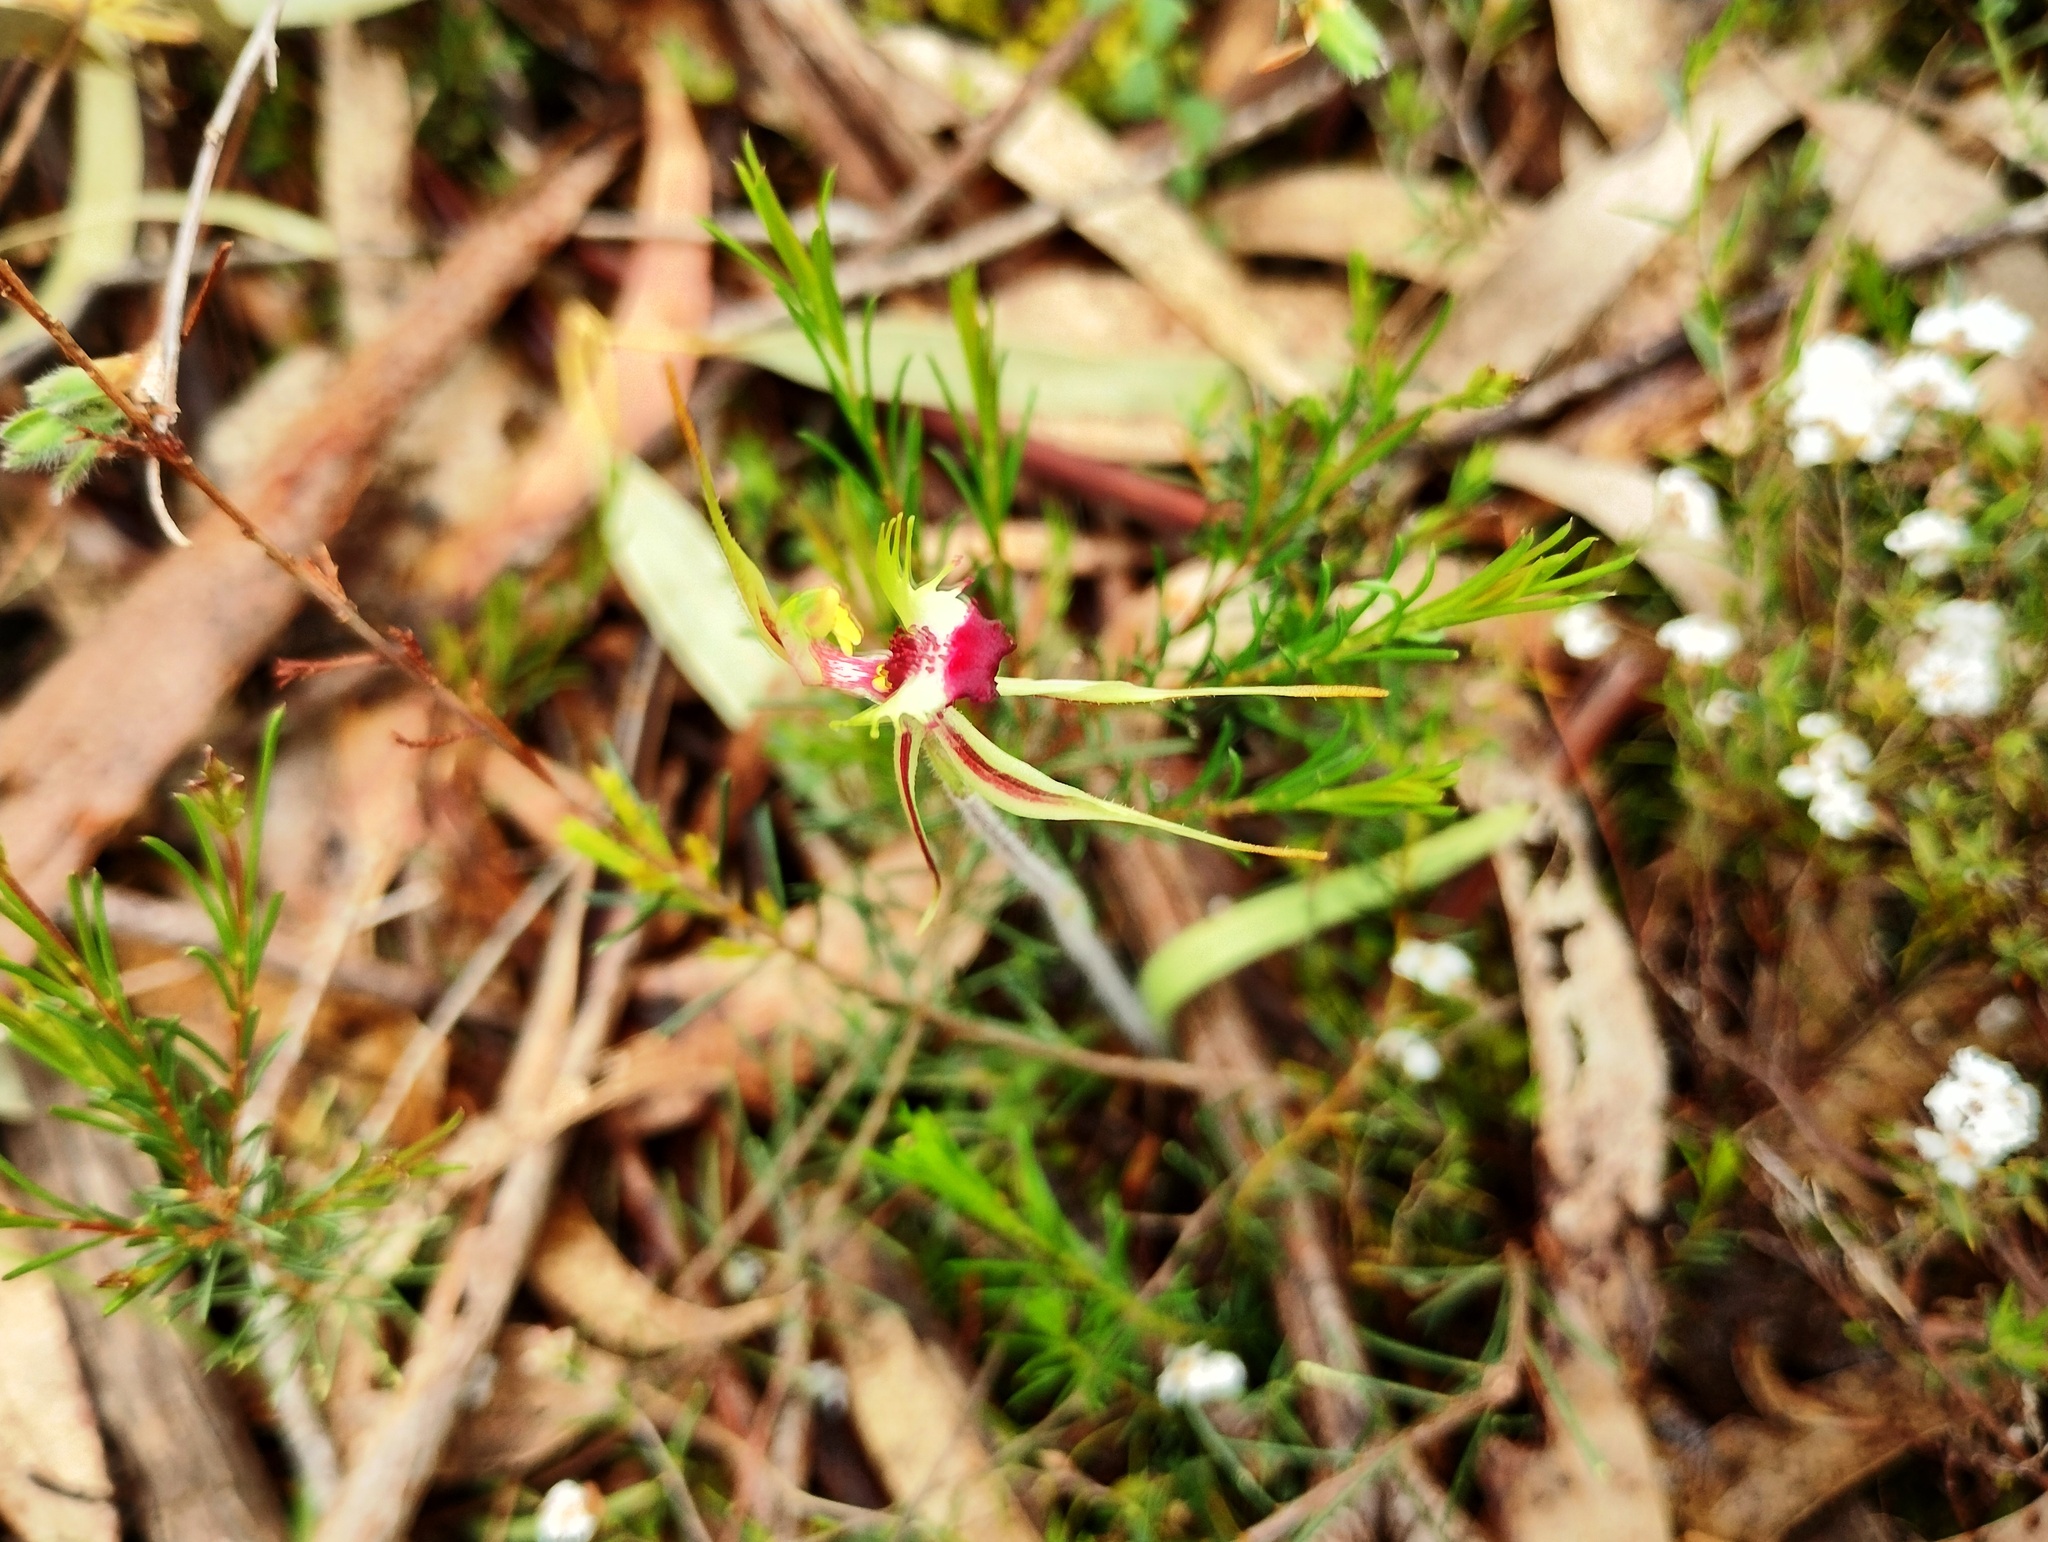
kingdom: Plantae
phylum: Tracheophyta
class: Liliopsida
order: Asparagales
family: Orchidaceae
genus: Caladenia
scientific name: Caladenia parva
